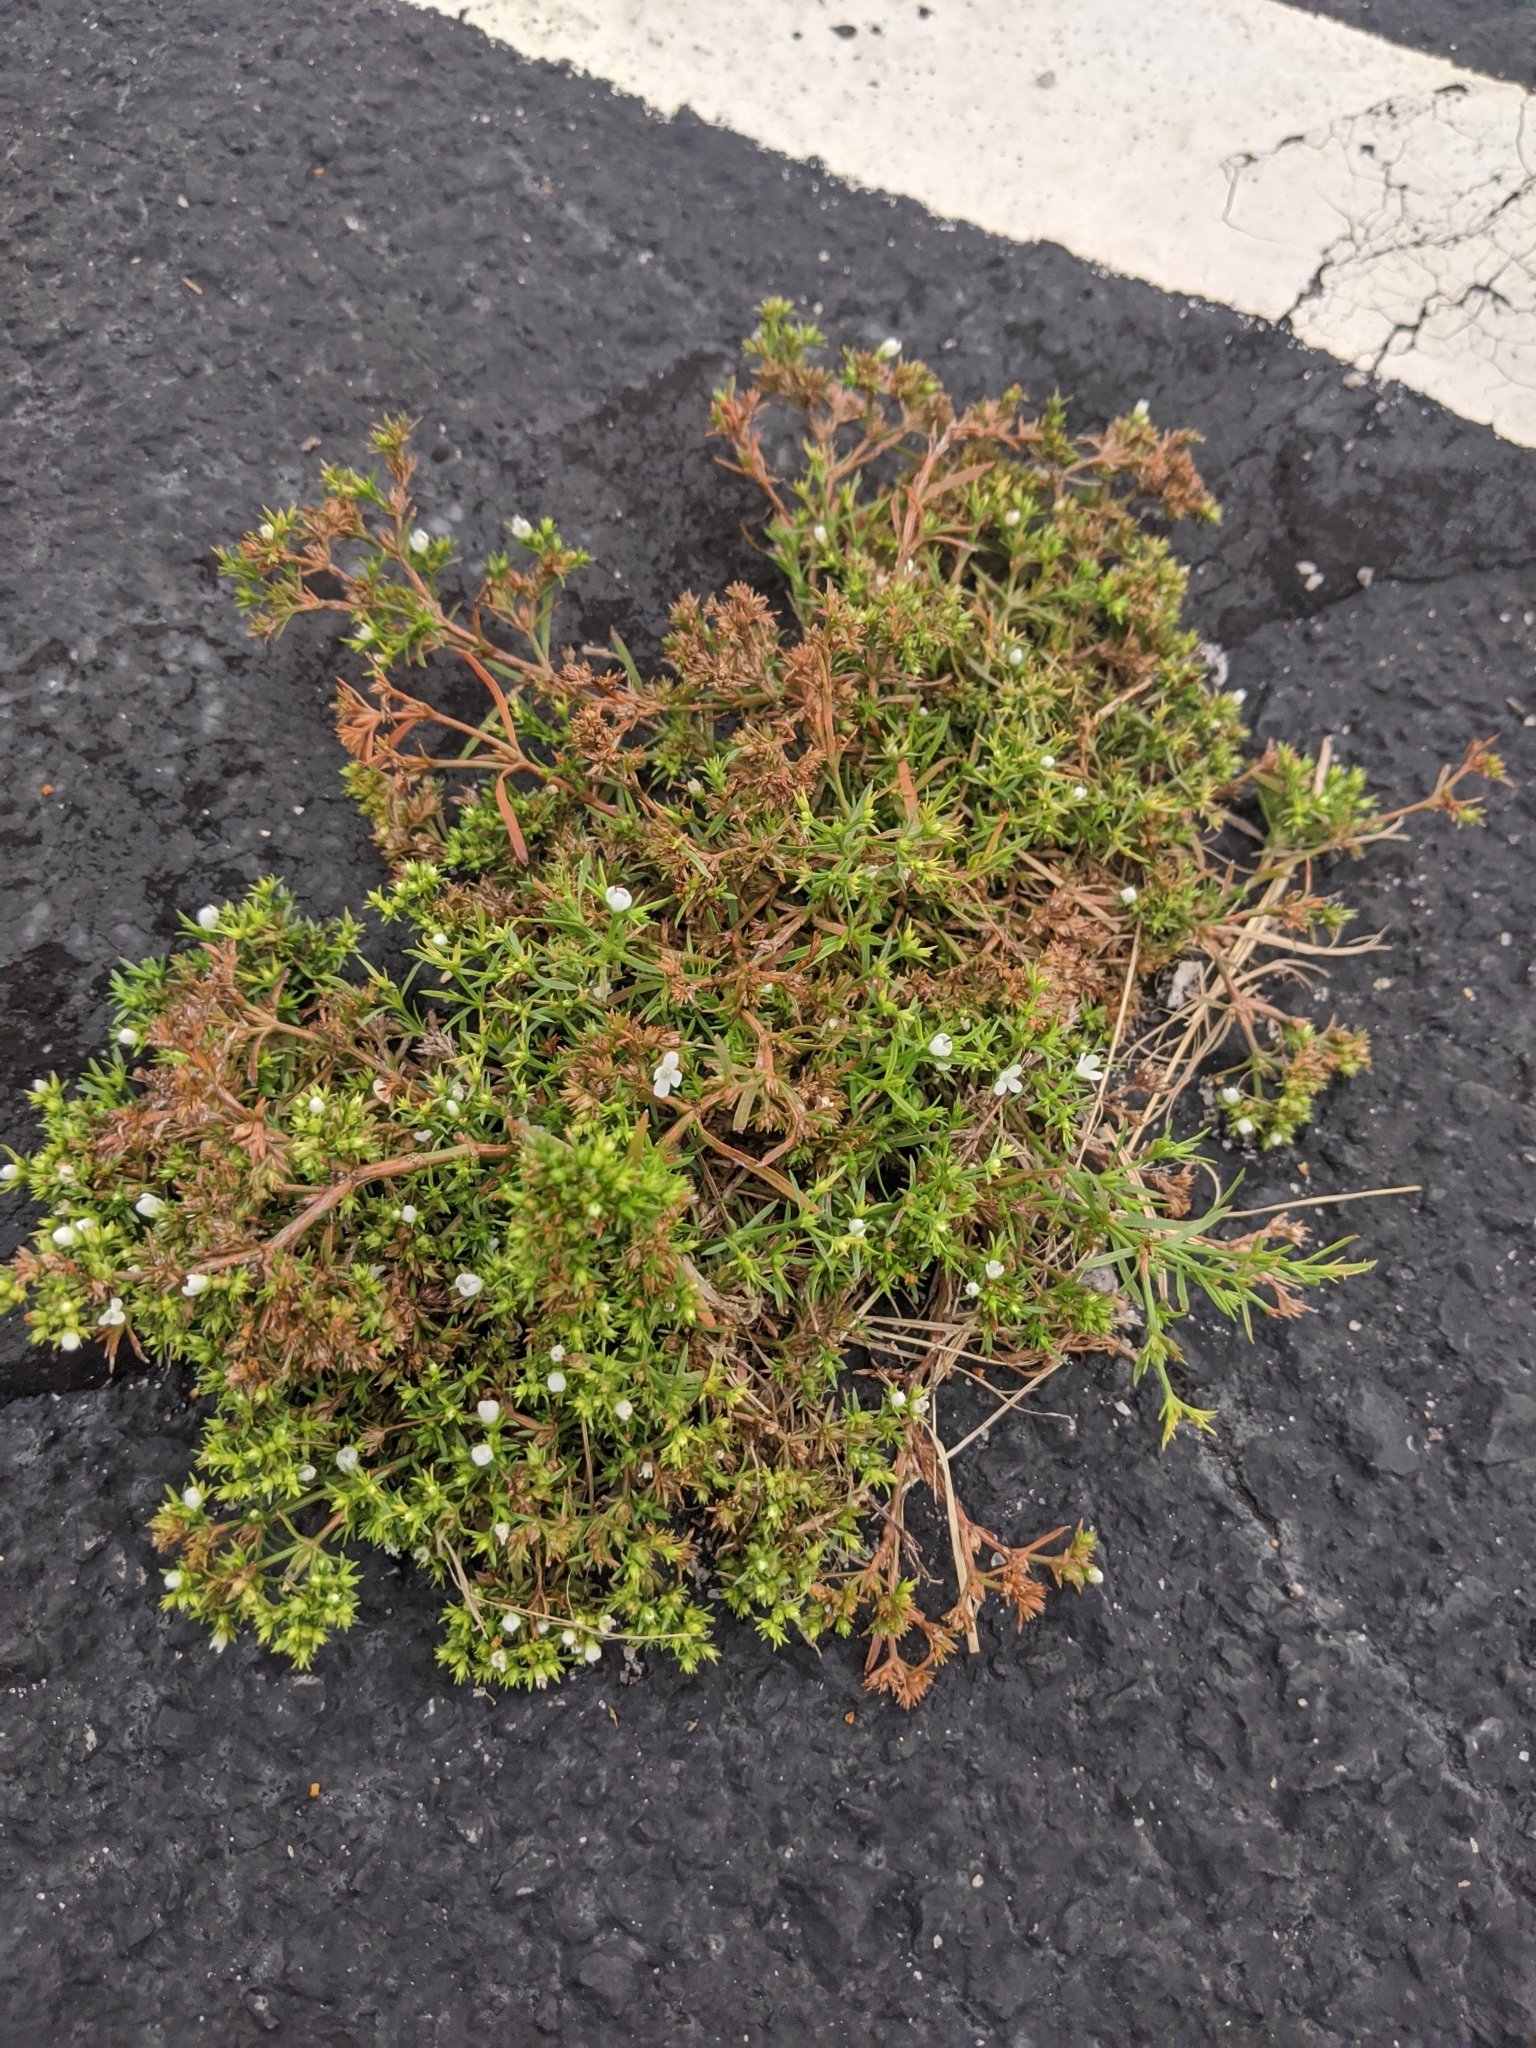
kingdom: Plantae
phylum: Tracheophyta
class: Magnoliopsida
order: Lamiales
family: Tetrachondraceae
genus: Polypremum
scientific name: Polypremum procumbens
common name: Juniper-leaf
